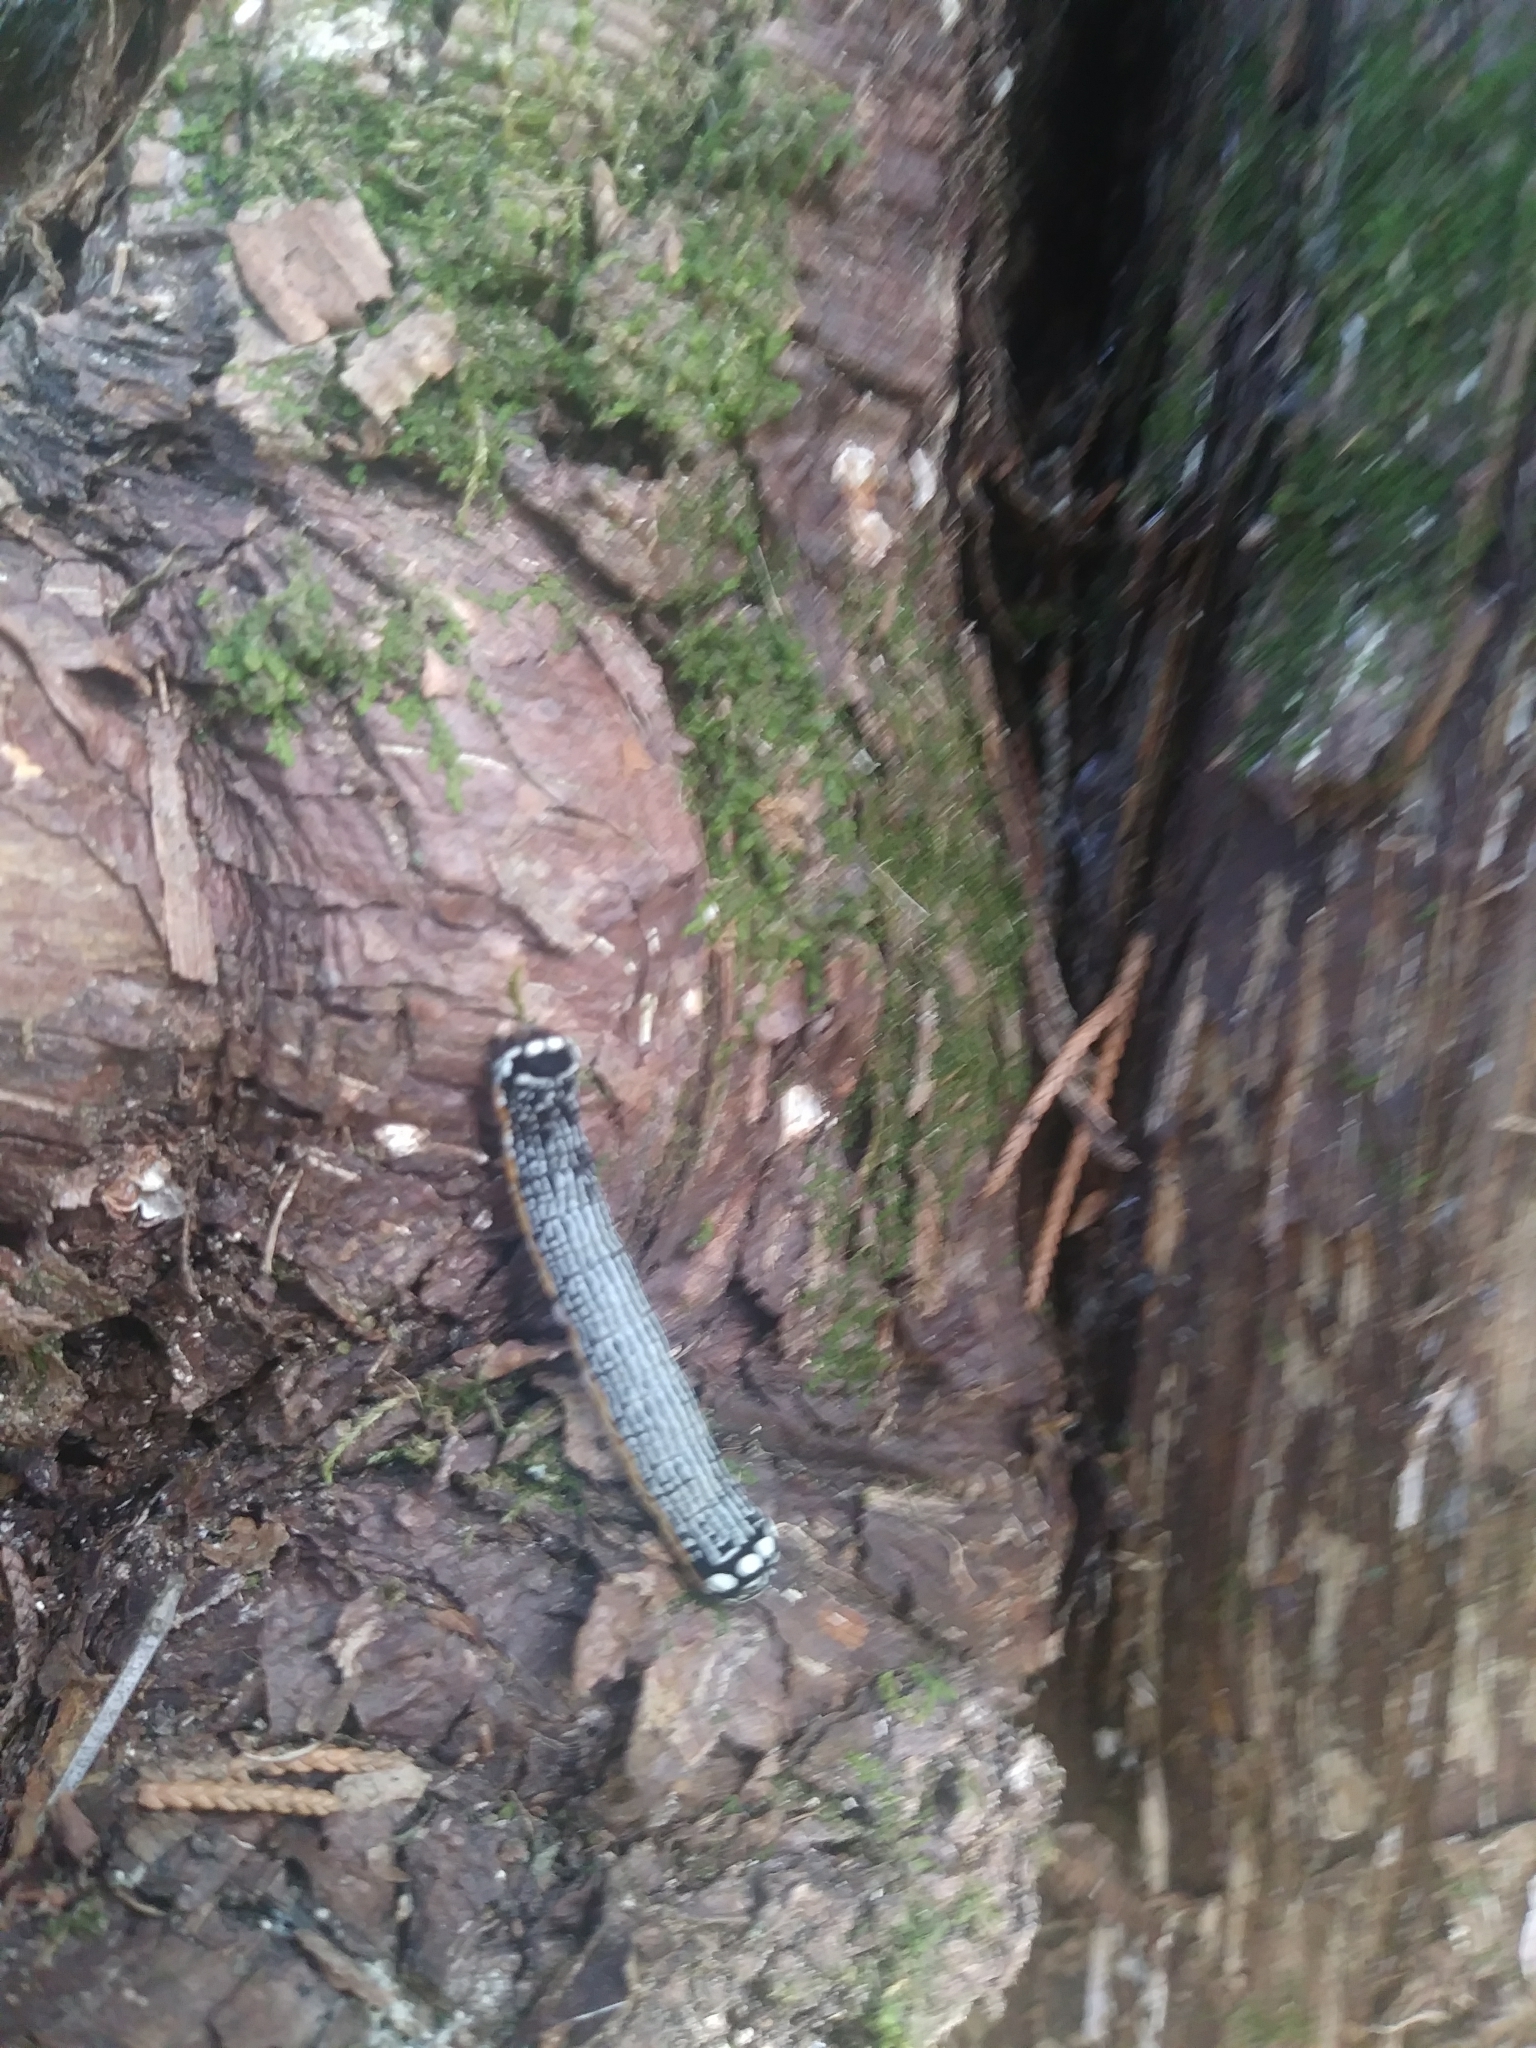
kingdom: Animalia
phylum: Arthropoda
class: Insecta
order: Lepidoptera
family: Noctuidae
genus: Phosphila
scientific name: Phosphila turbulenta
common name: Turbulent phosphila moth
